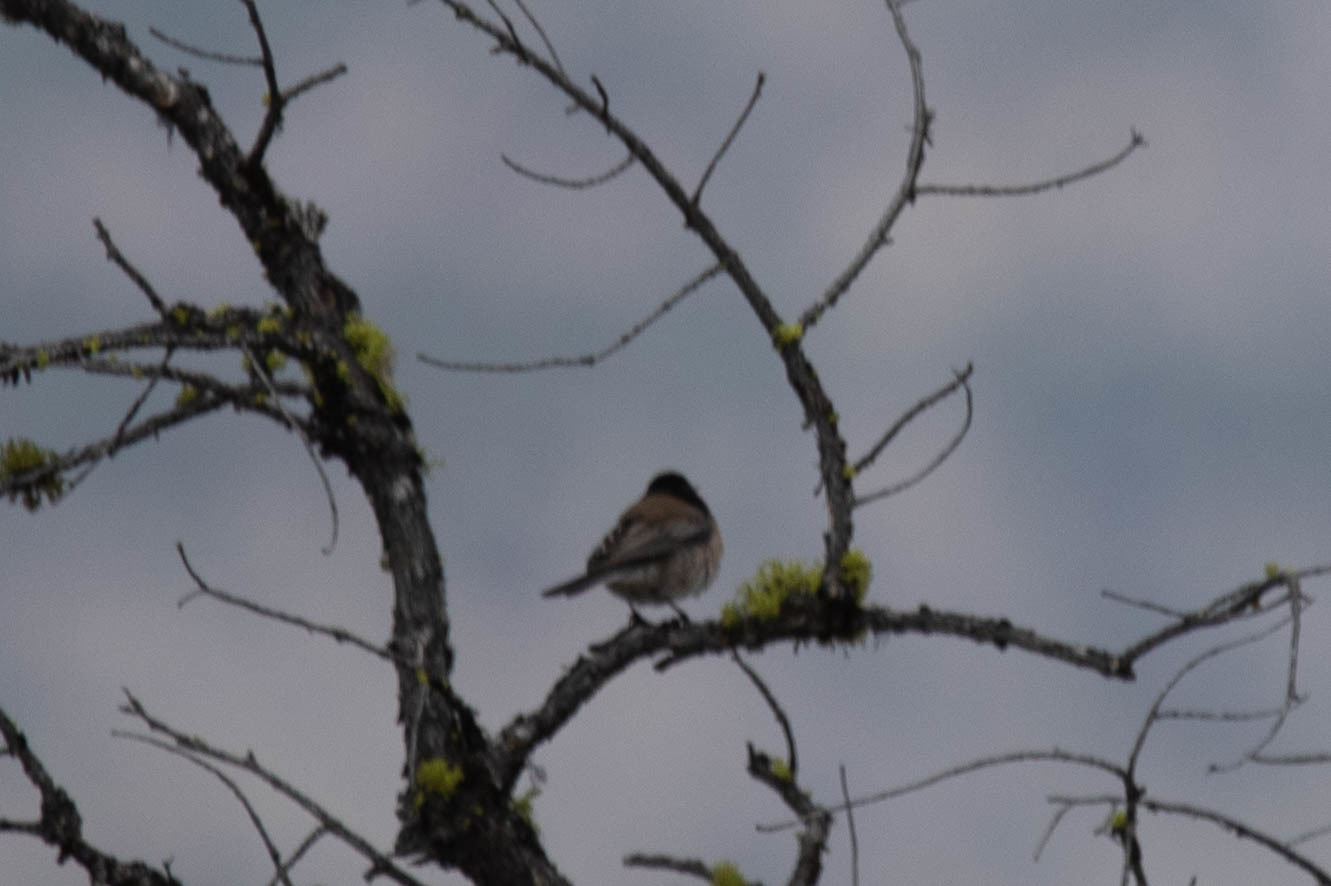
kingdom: Animalia
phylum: Chordata
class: Aves
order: Passeriformes
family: Passerellidae
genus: Junco
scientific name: Junco hyemalis
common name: Dark-eyed junco
